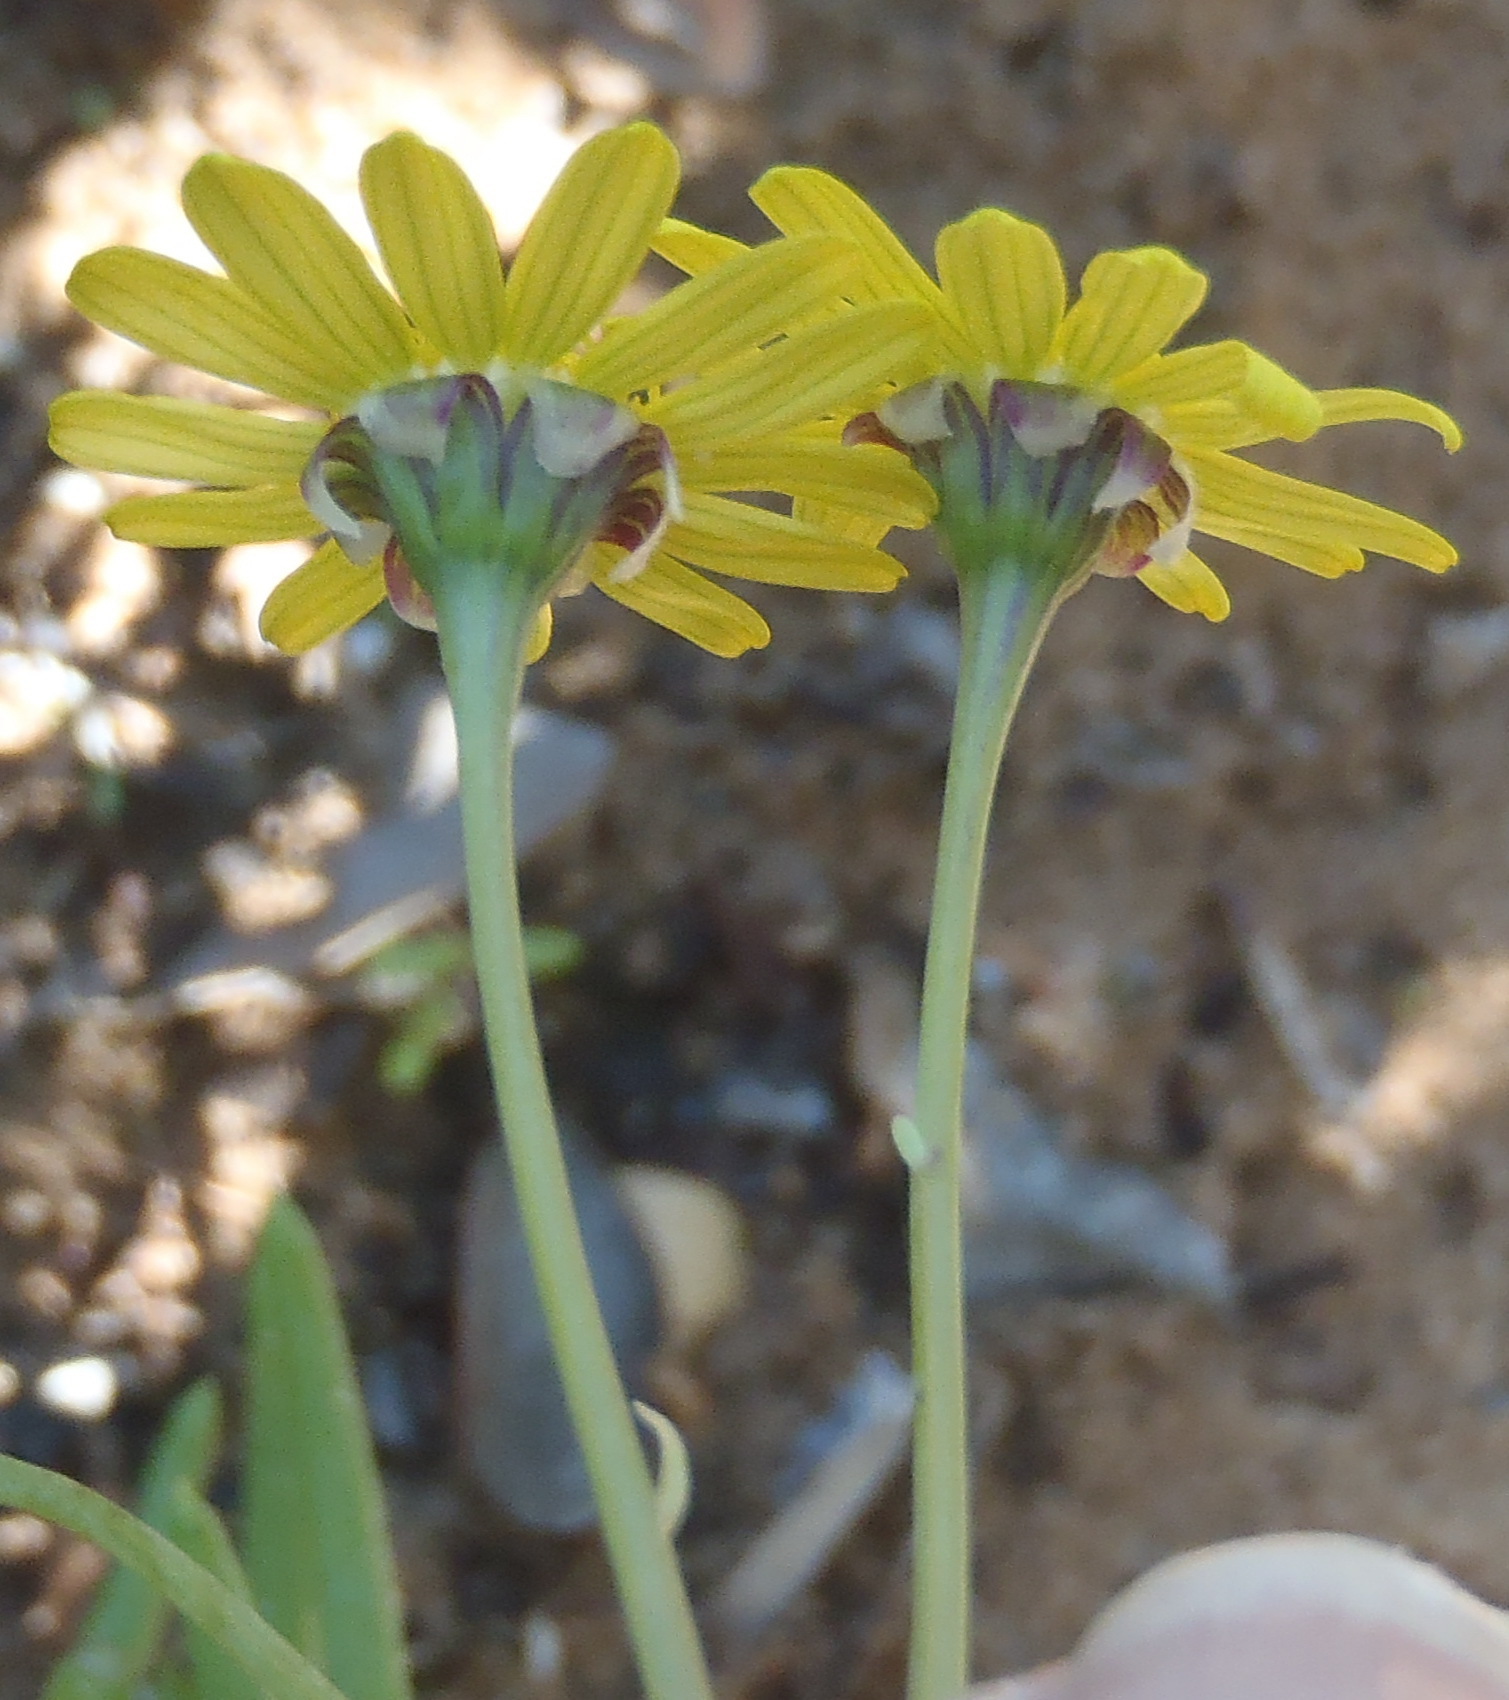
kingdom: Plantae
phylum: Tracheophyta
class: Magnoliopsida
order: Asterales
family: Asteraceae
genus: Crassothonna
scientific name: Crassothonna cacalioides
